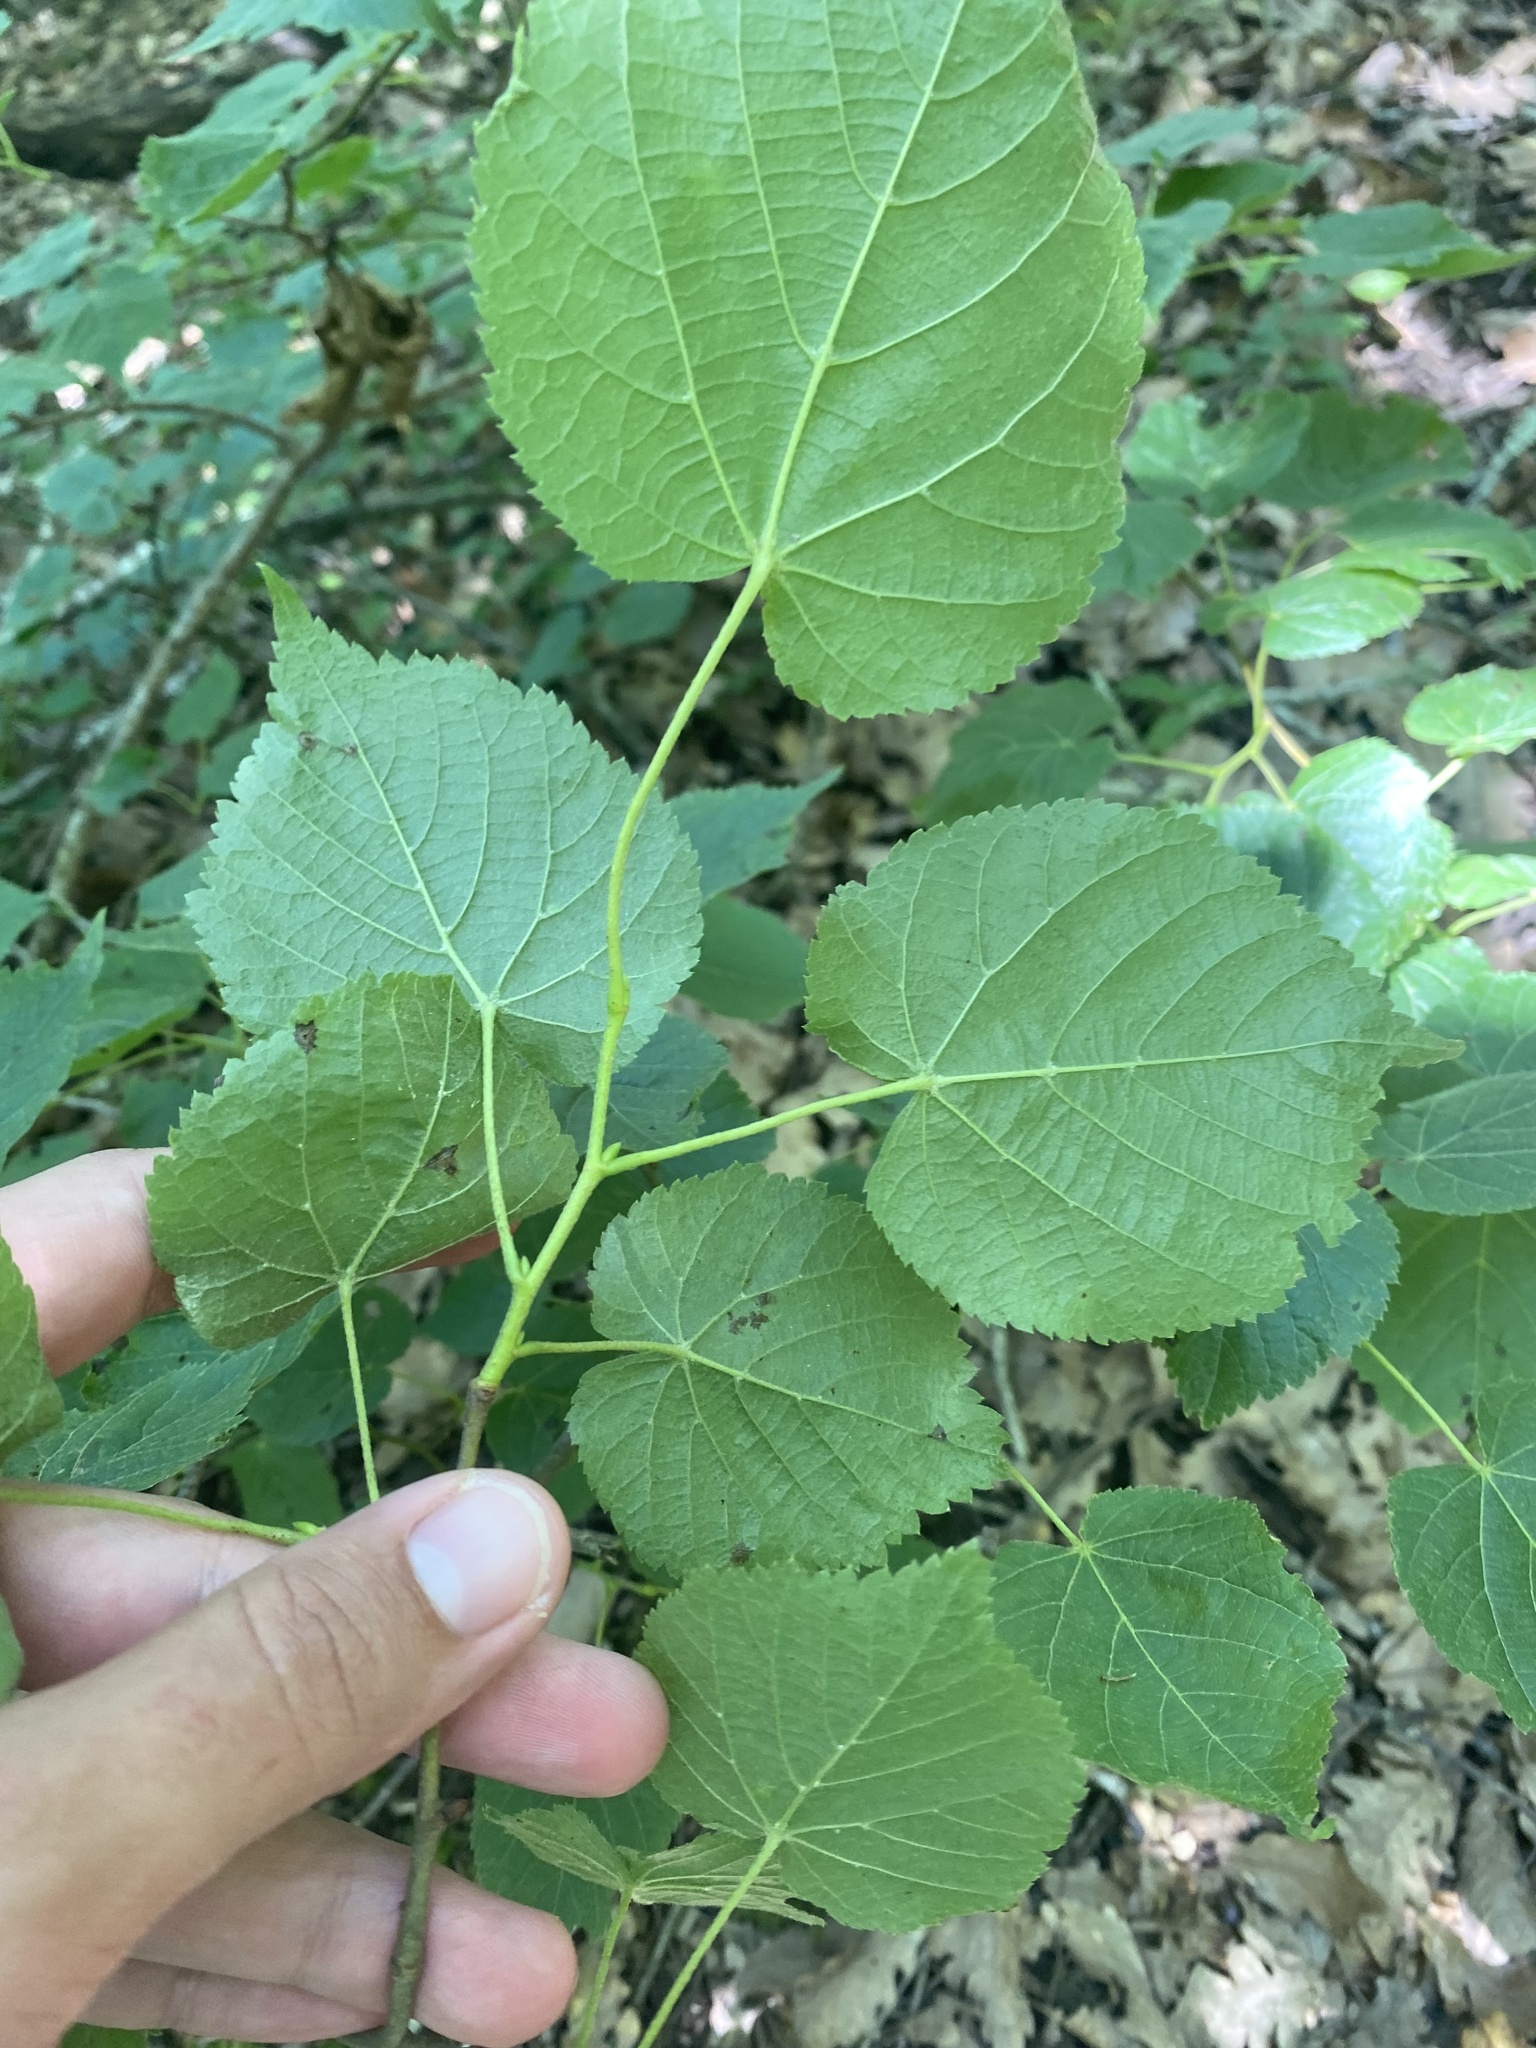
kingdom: Plantae
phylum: Tracheophyta
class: Magnoliopsida
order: Malvales
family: Malvaceae
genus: Tilia
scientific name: Tilia
